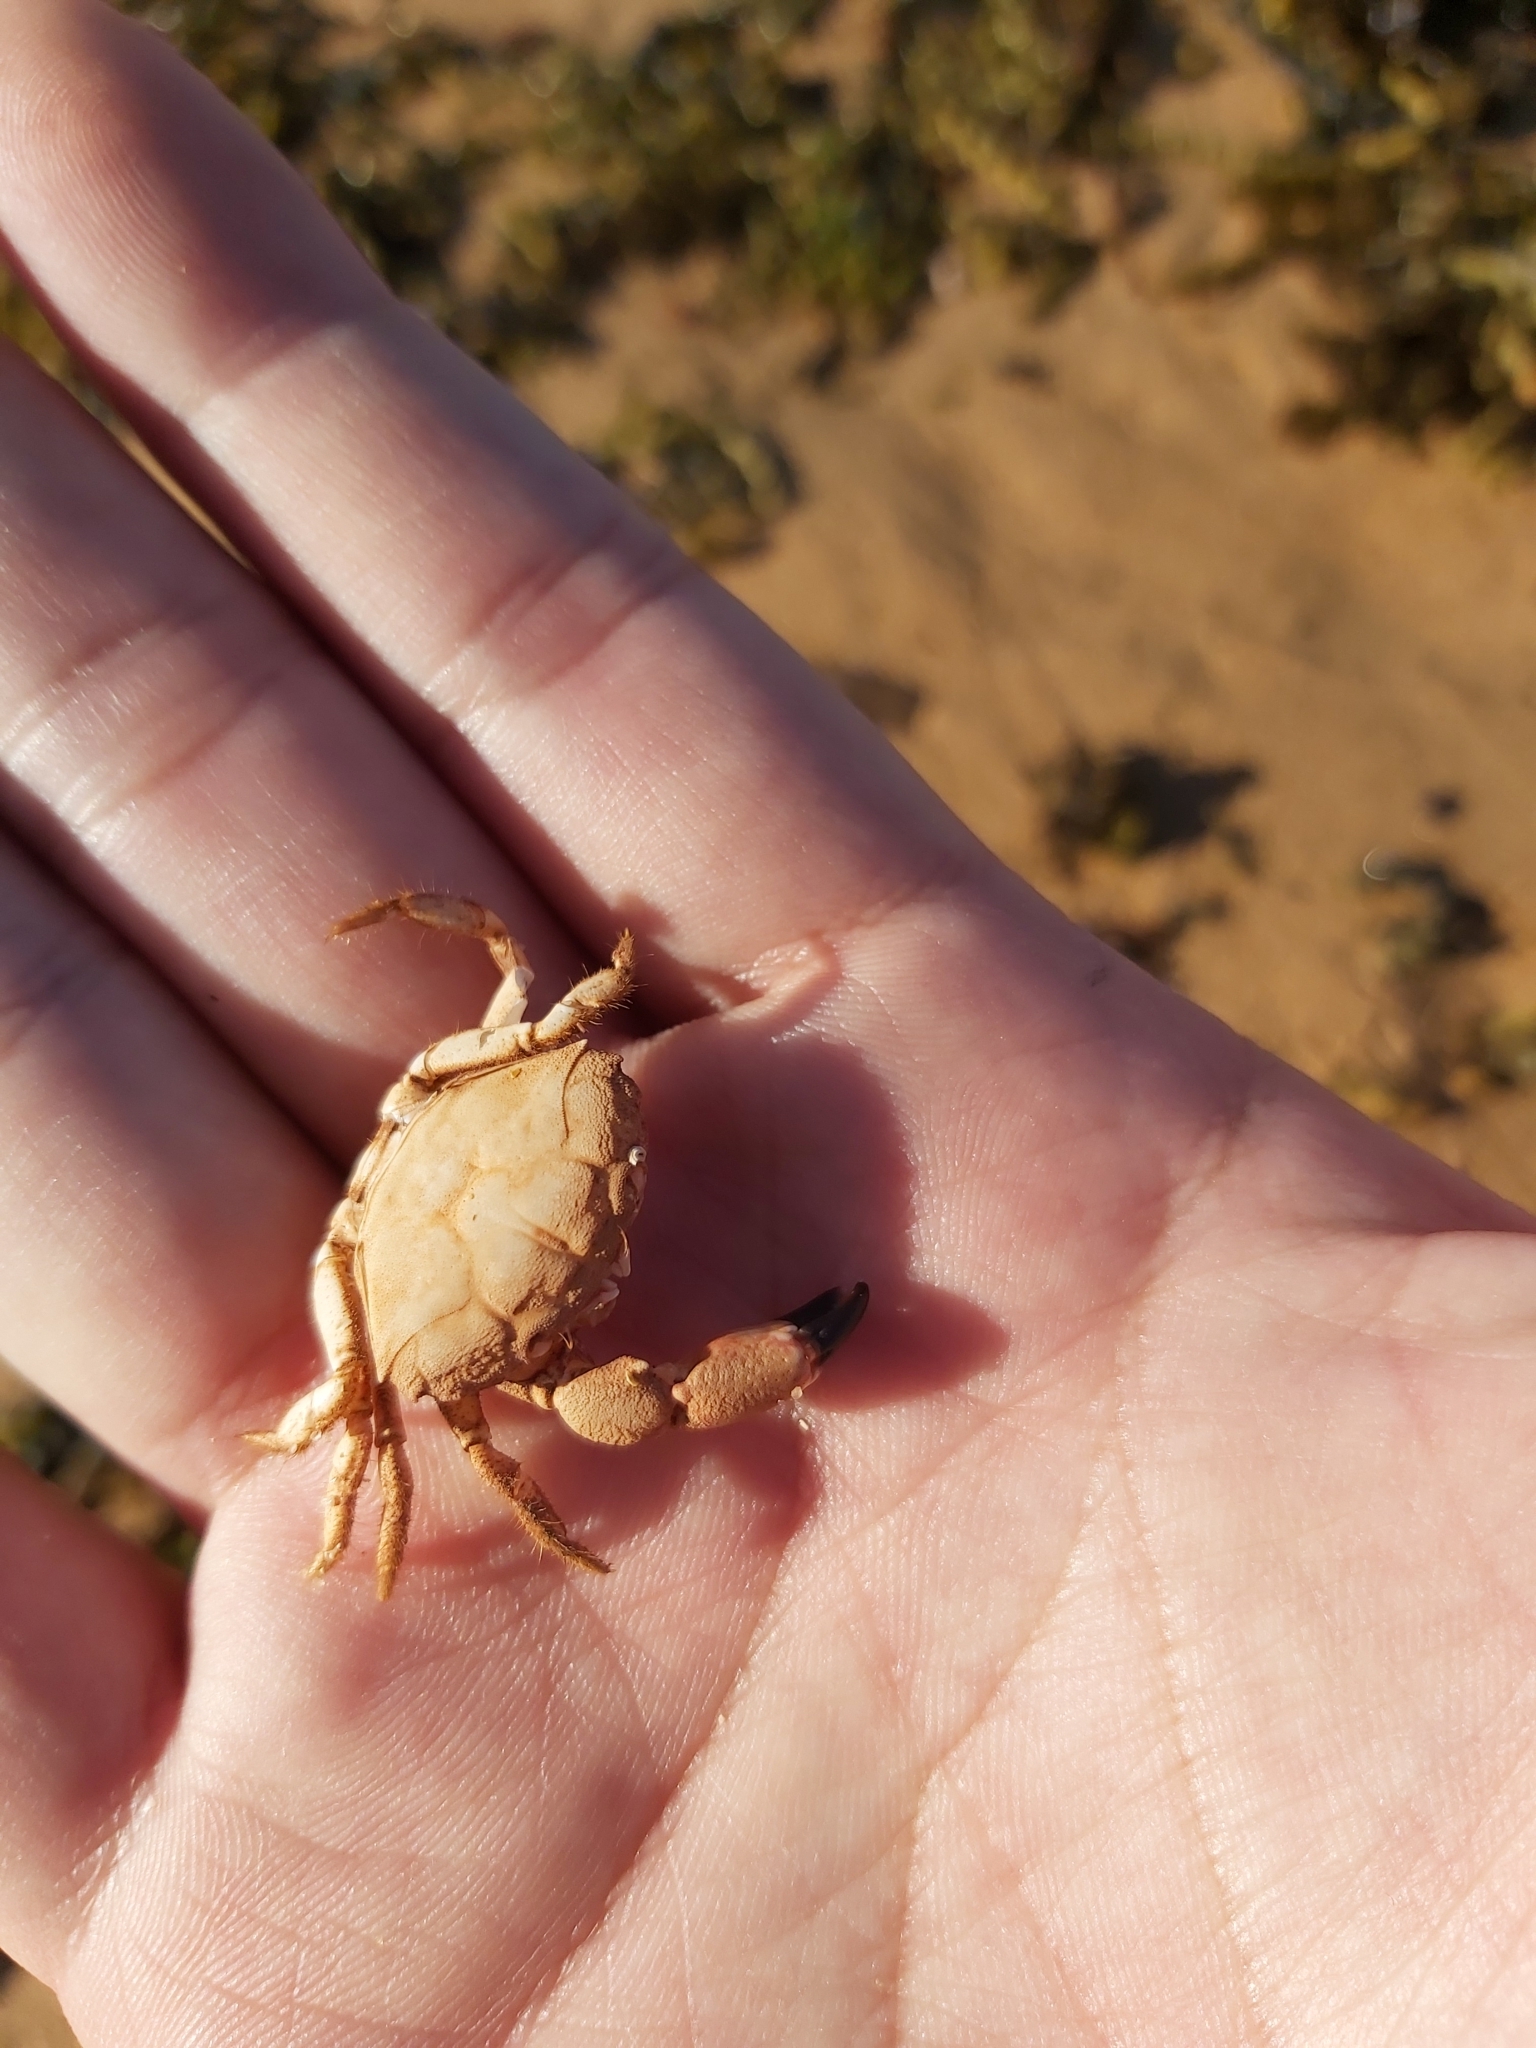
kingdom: Animalia
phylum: Arthropoda
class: Malacostraca
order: Decapoda
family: Oziidae
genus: Ozius
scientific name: Ozius truncatus
